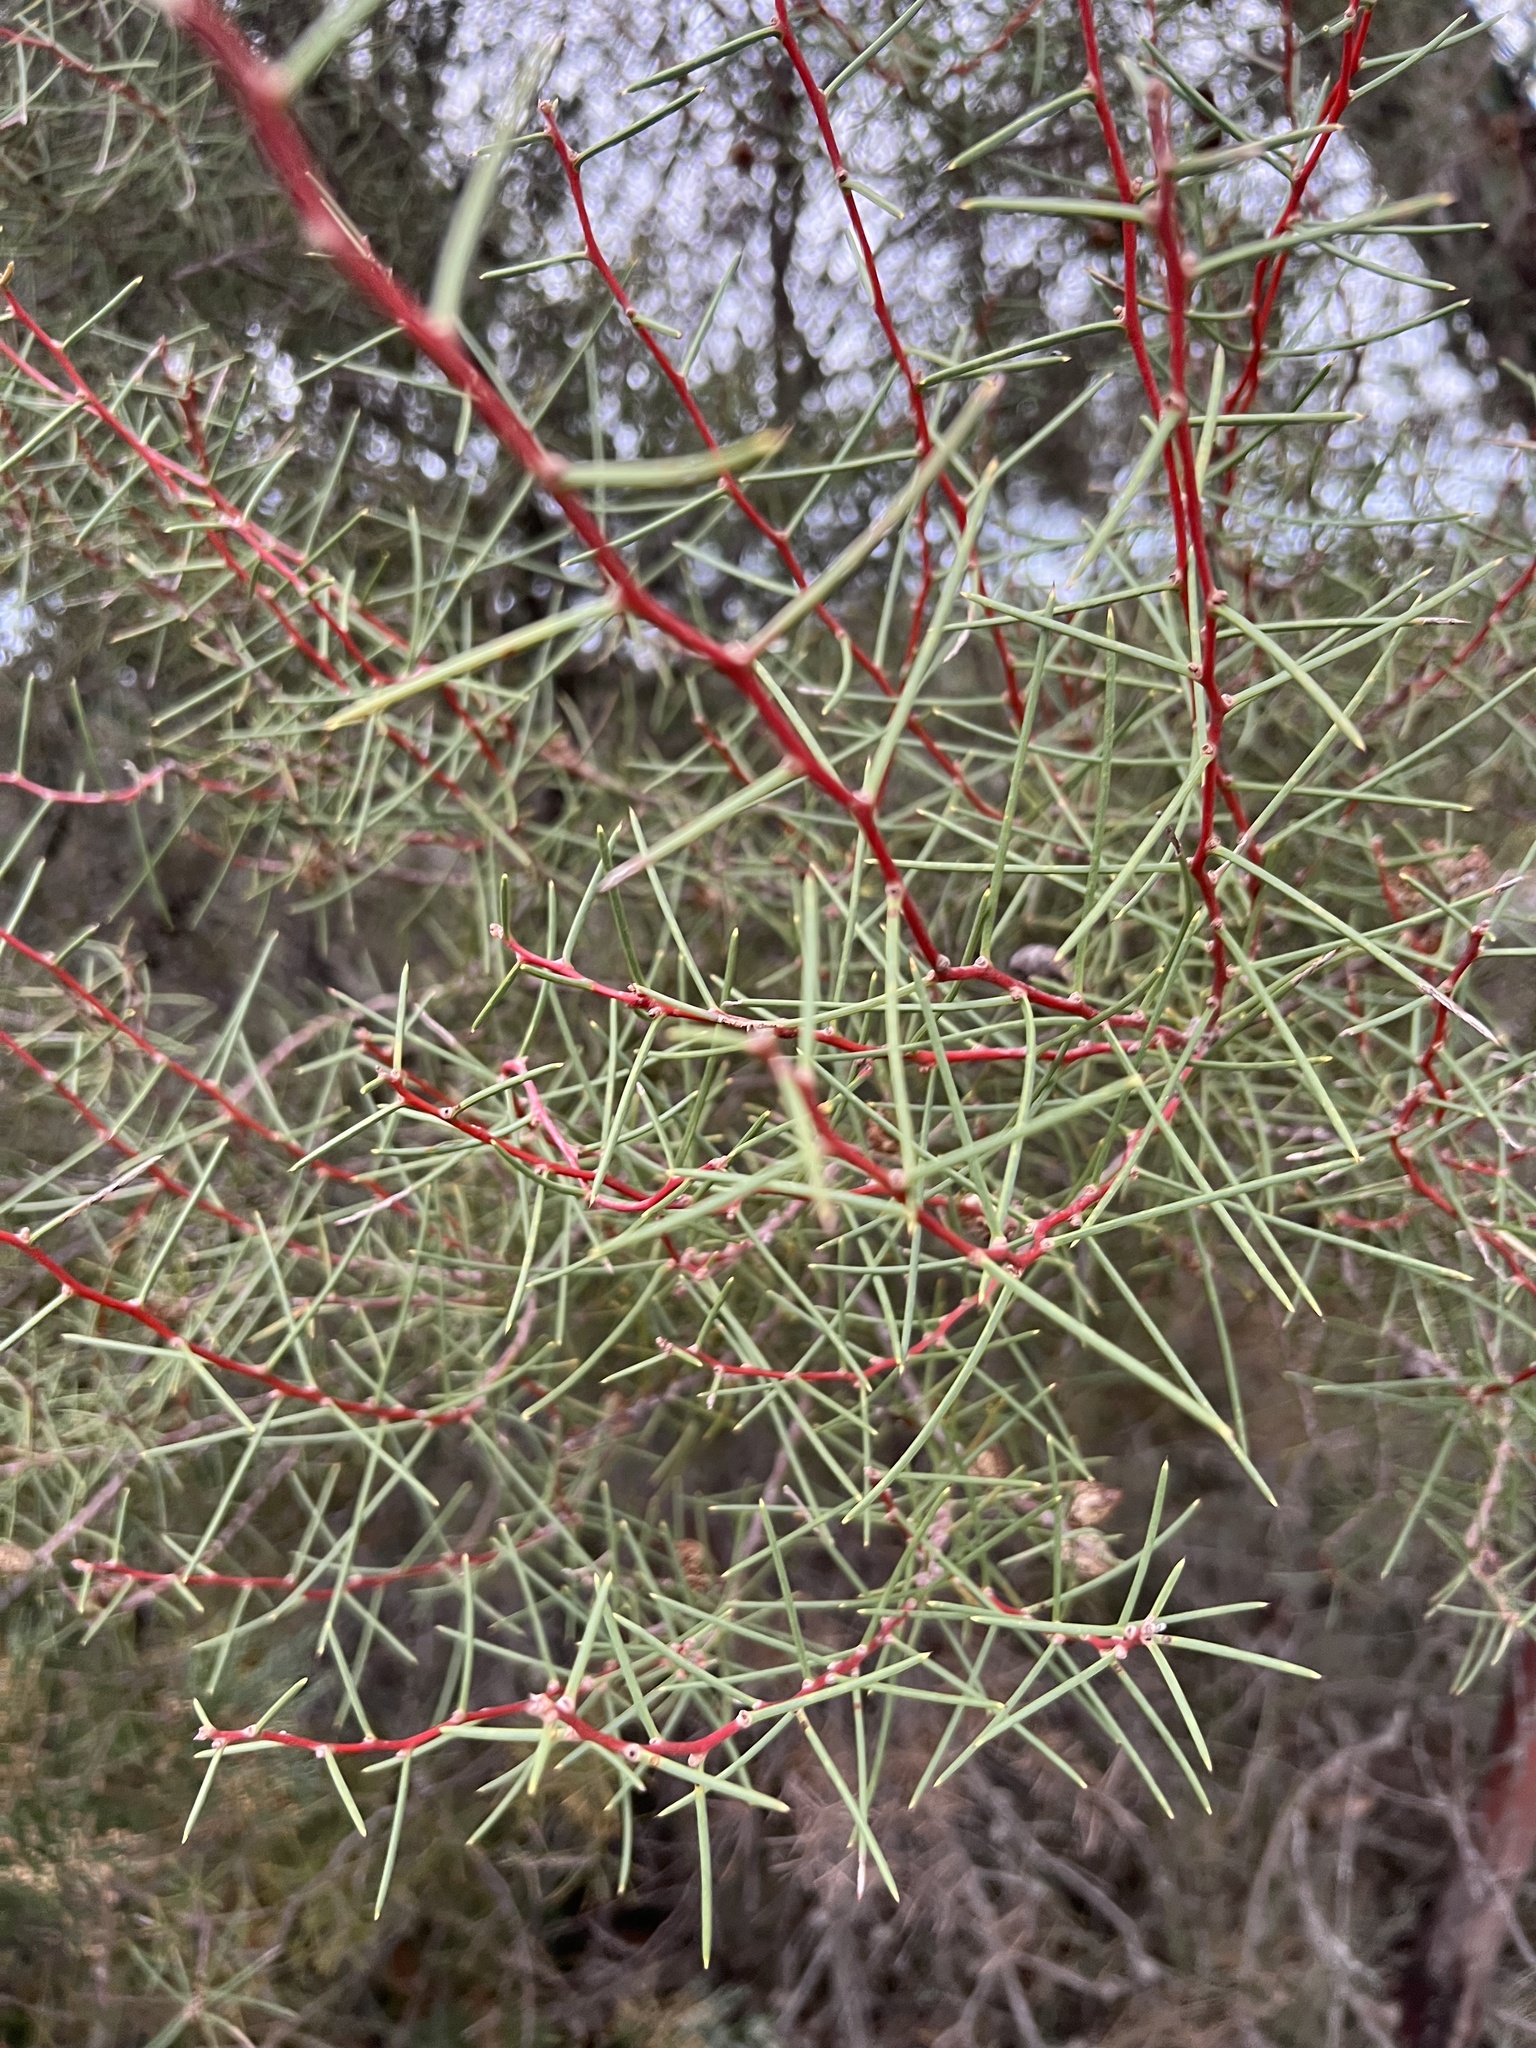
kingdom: Plantae
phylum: Tracheophyta
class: Magnoliopsida
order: Proteales
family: Proteaceae
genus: Hakea
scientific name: Hakea mitchellii
